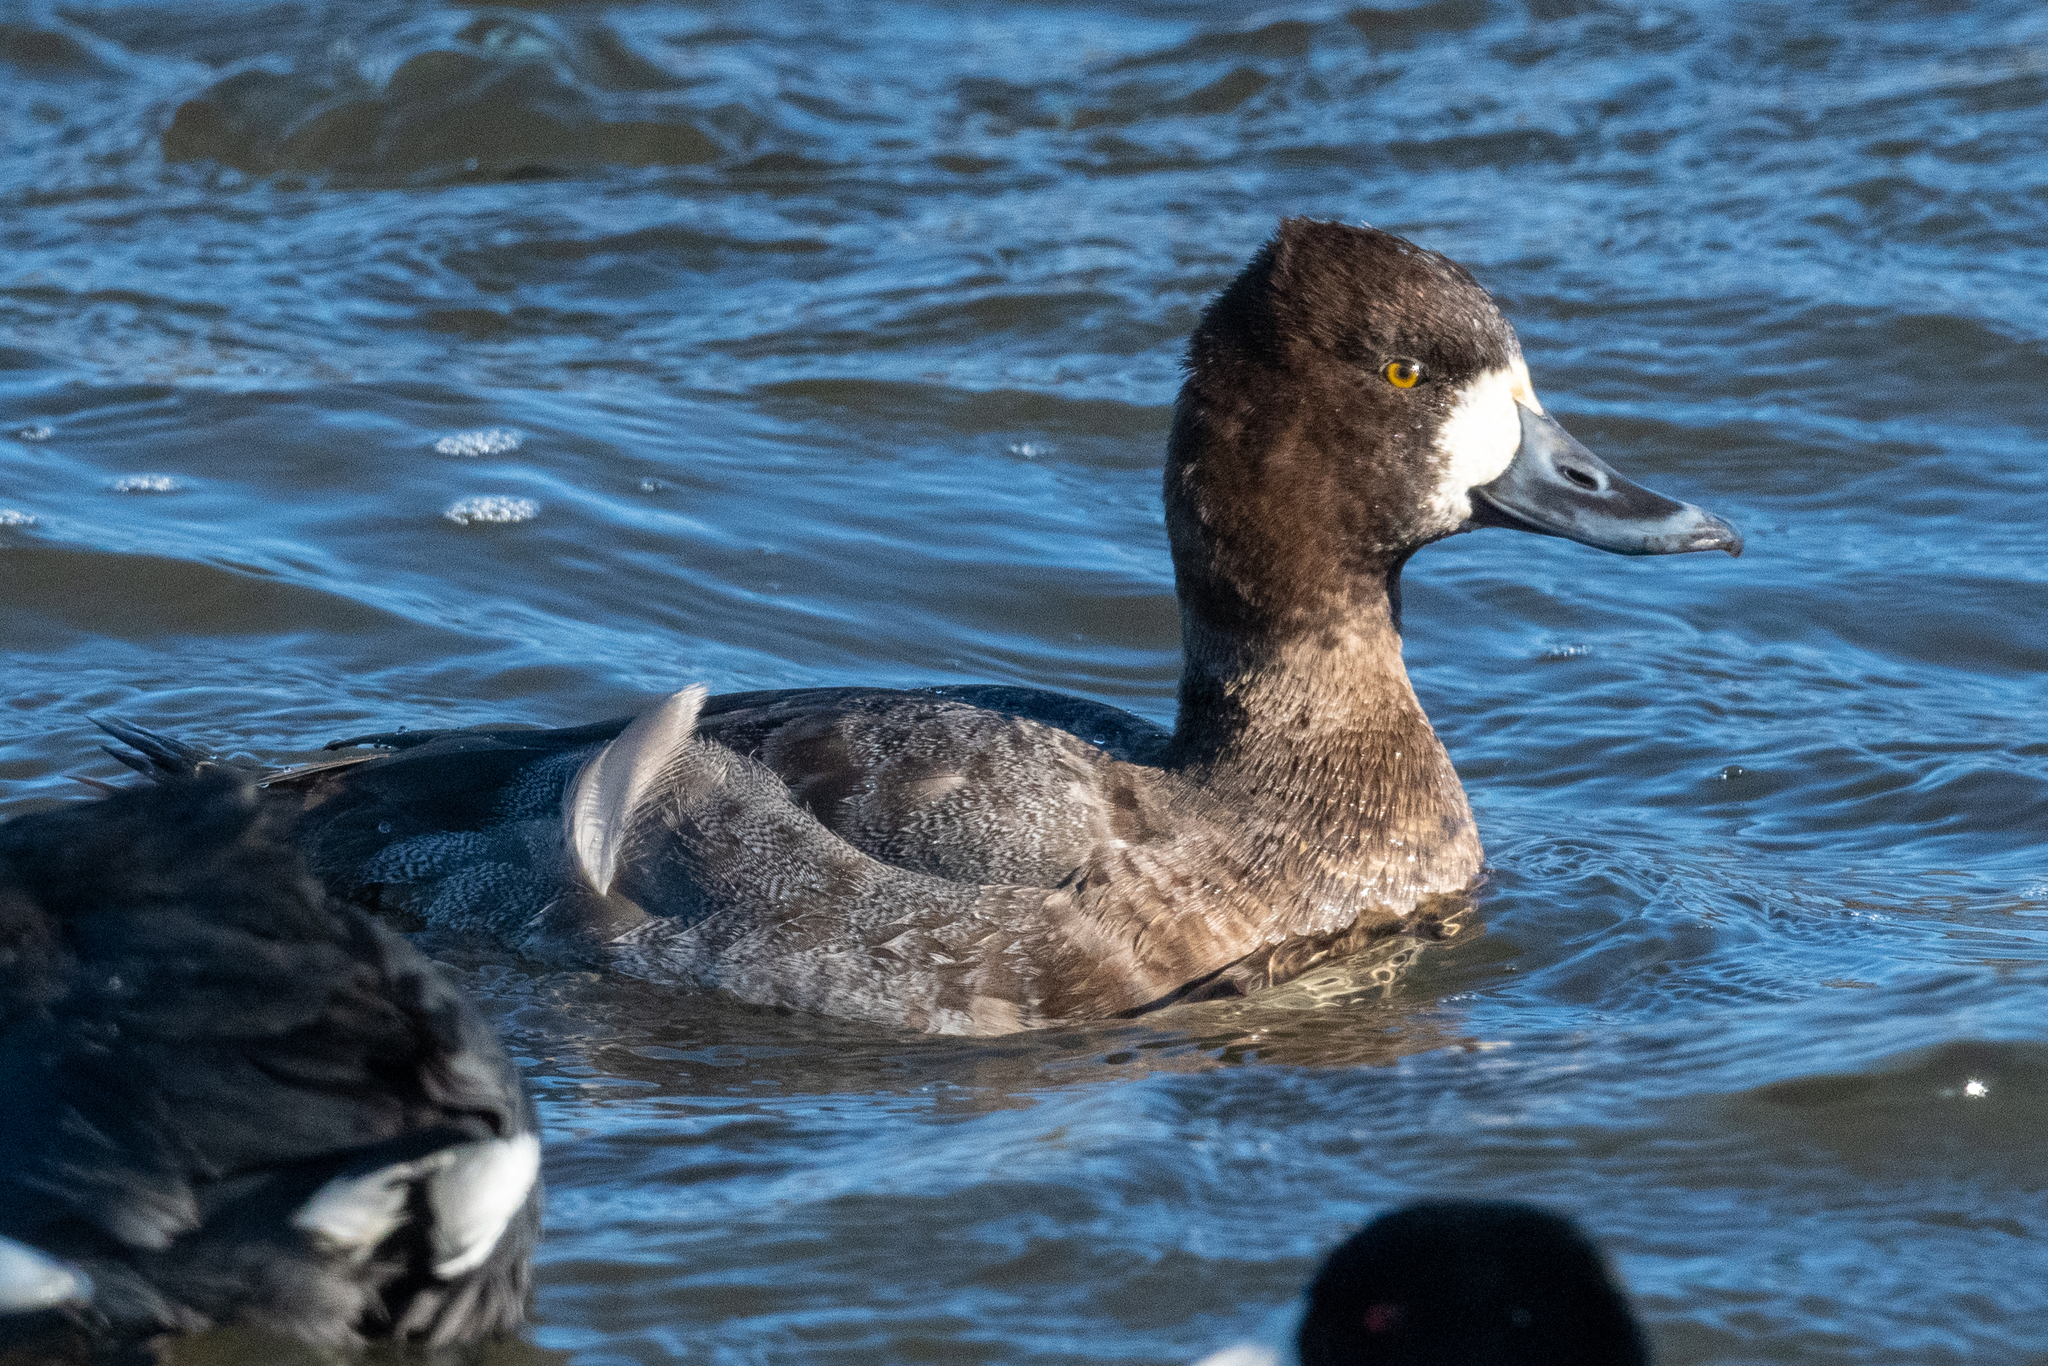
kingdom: Animalia
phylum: Chordata
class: Aves
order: Anseriformes
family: Anatidae
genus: Aythya
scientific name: Aythya affinis
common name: Lesser scaup
